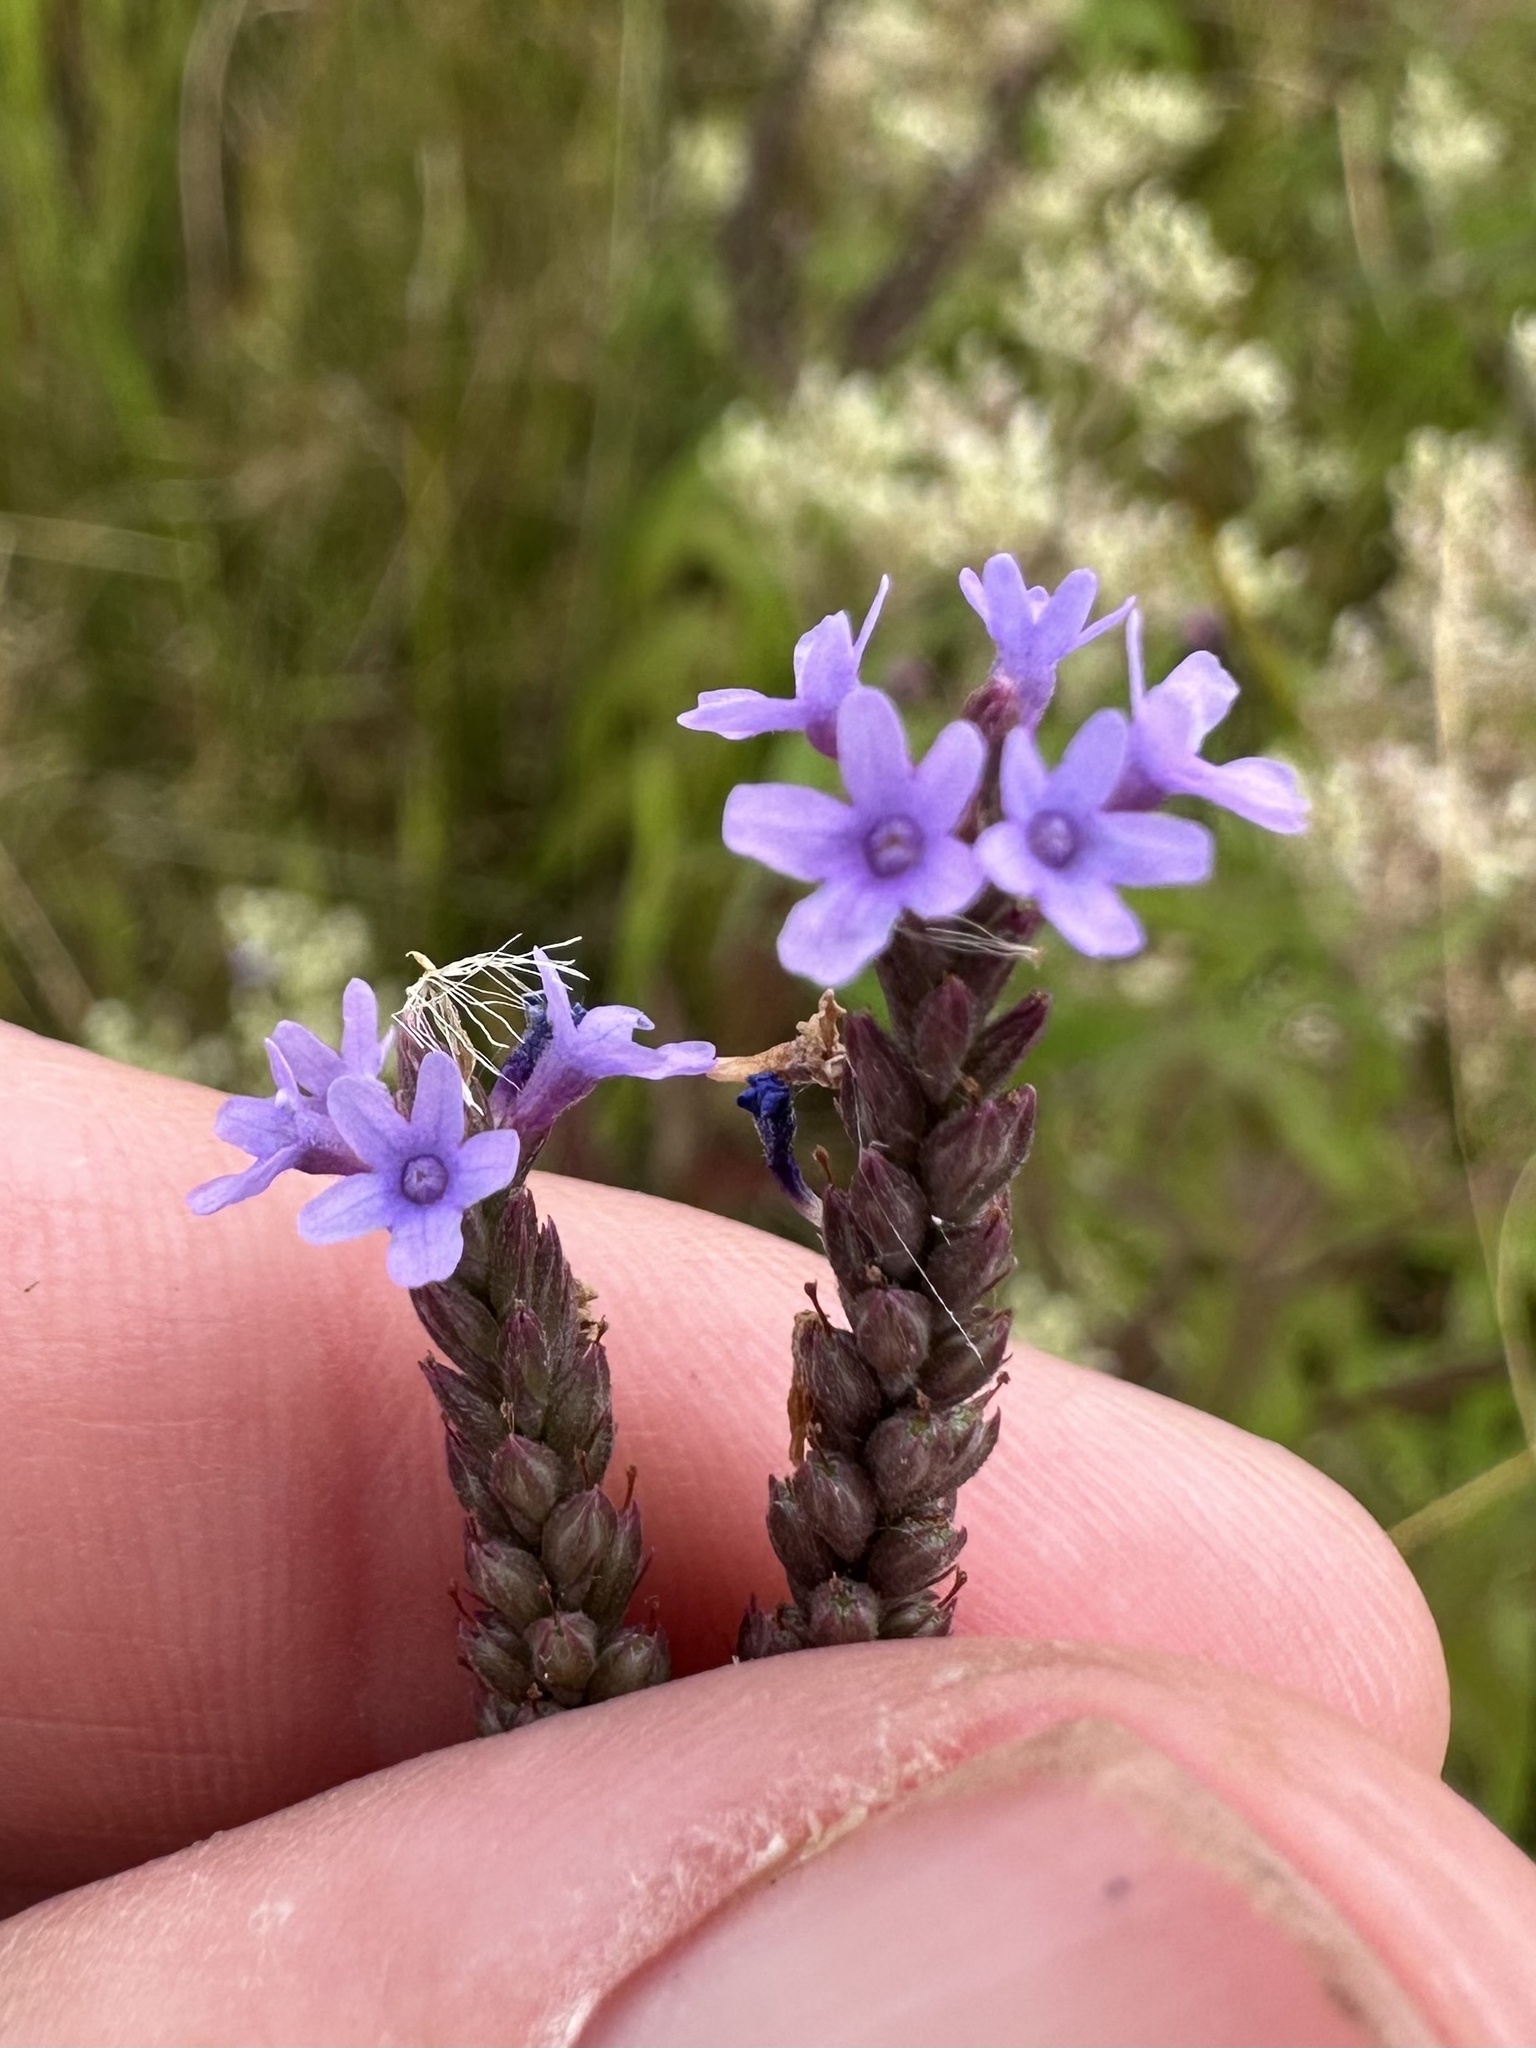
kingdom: Plantae
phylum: Tracheophyta
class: Magnoliopsida
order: Lamiales
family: Verbenaceae
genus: Verbena
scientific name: Verbena hastata
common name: American blue vervain
